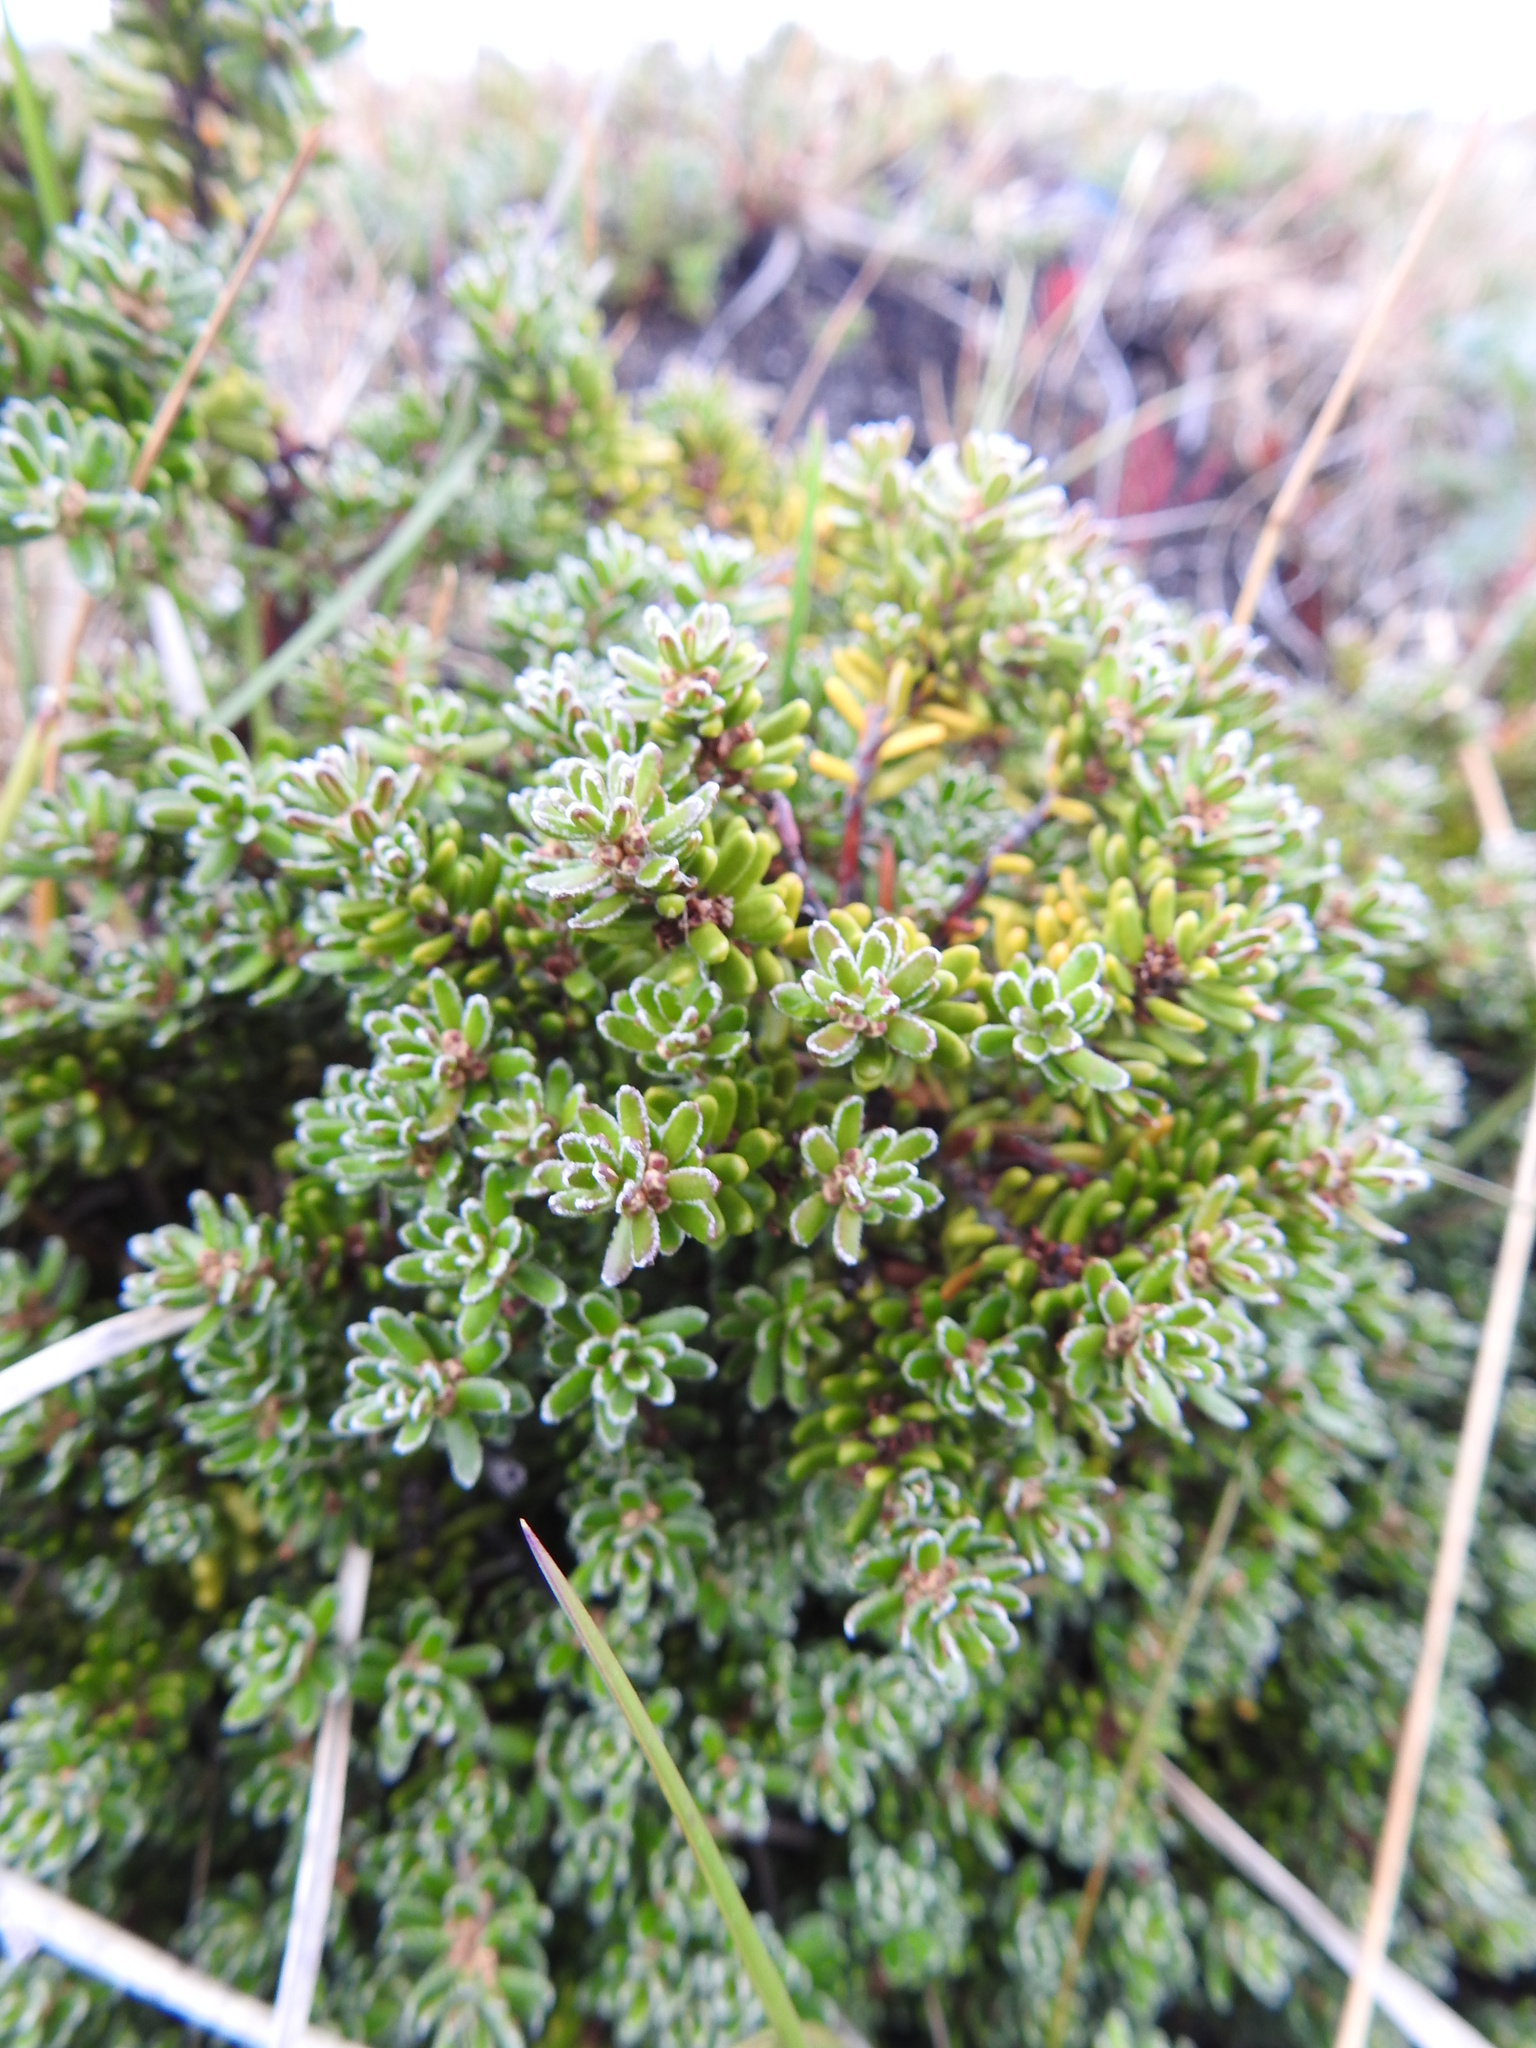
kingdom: Plantae
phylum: Tracheophyta
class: Magnoliopsida
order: Ericales
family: Ericaceae
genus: Empetrum
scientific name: Empetrum rubrum
